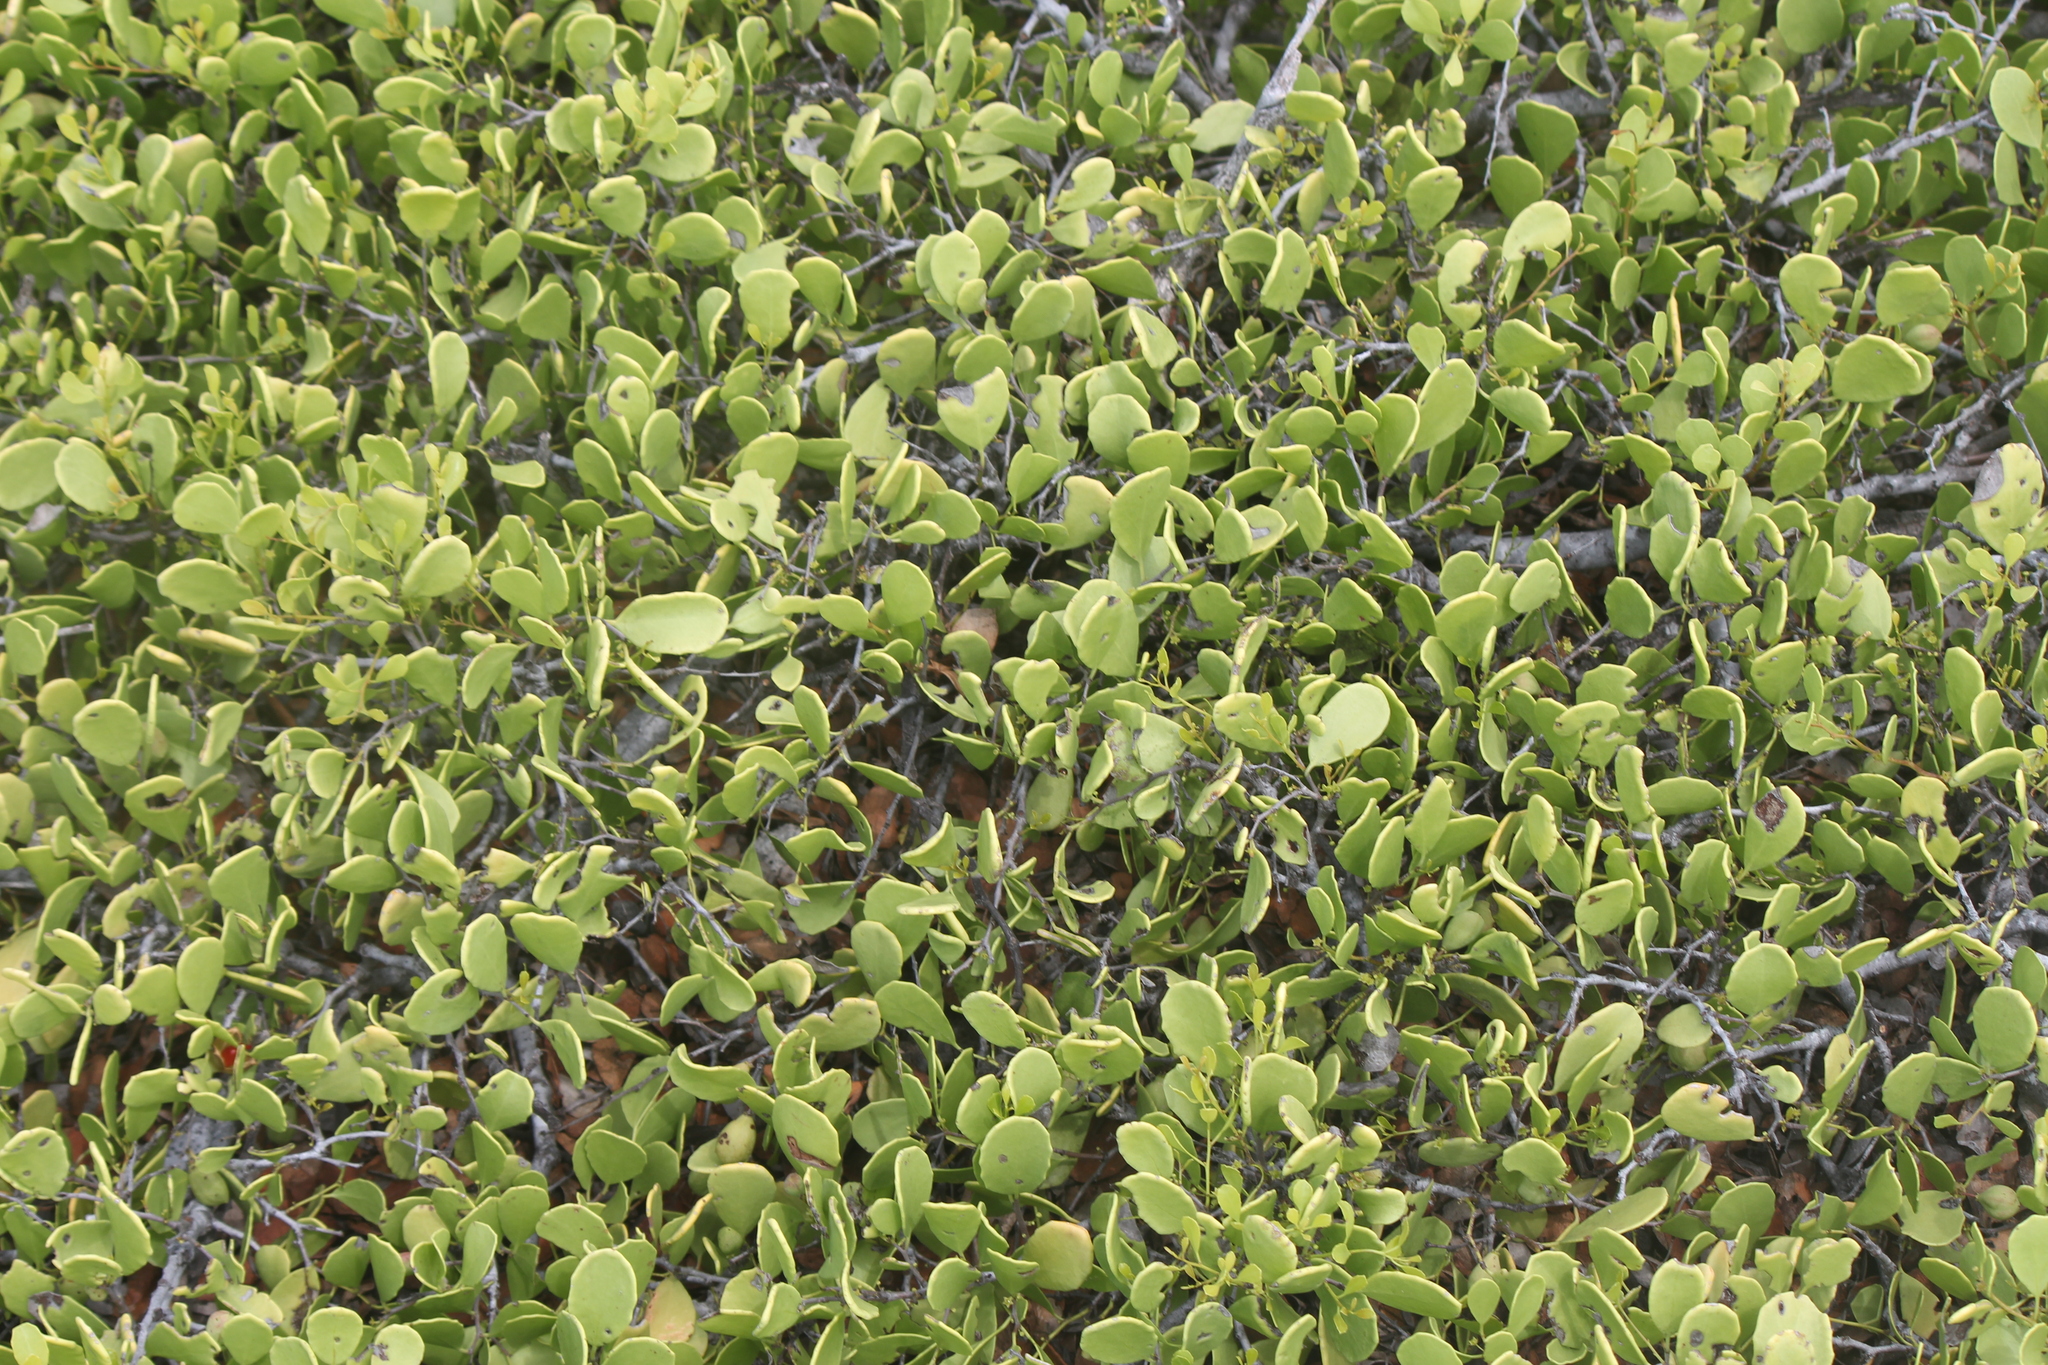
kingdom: Plantae
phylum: Tracheophyta
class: Magnoliopsida
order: Celastrales
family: Celastraceae
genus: Tricerma
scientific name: Tricerma octogonum
